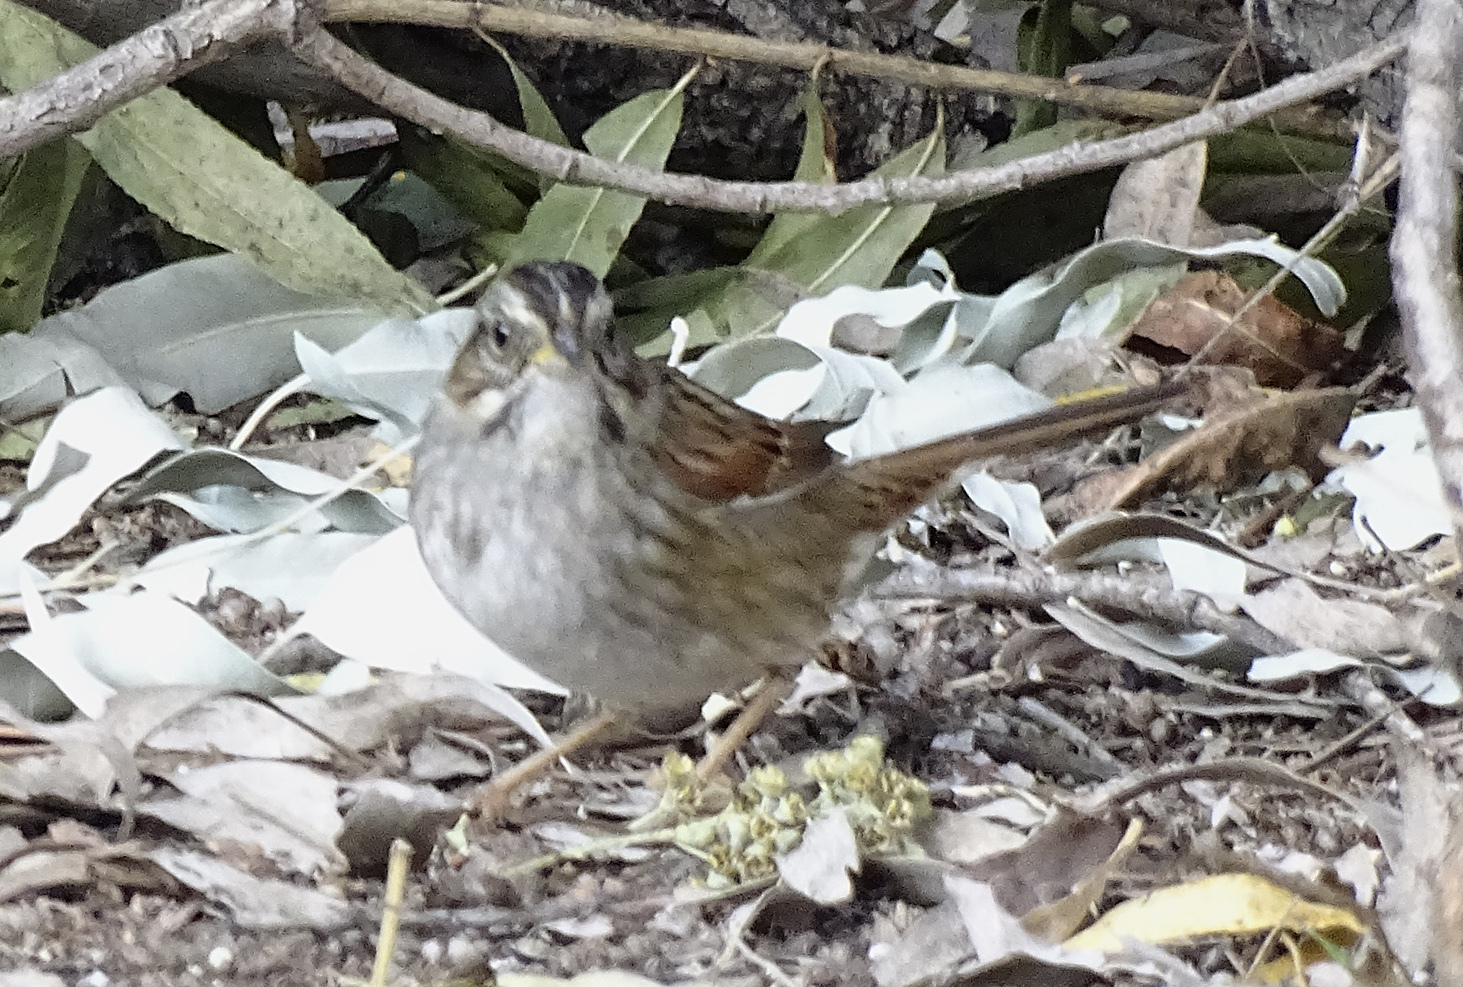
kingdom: Animalia
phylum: Chordata
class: Aves
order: Passeriformes
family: Passerellidae
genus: Melospiza
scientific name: Melospiza georgiana
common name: Swamp sparrow
